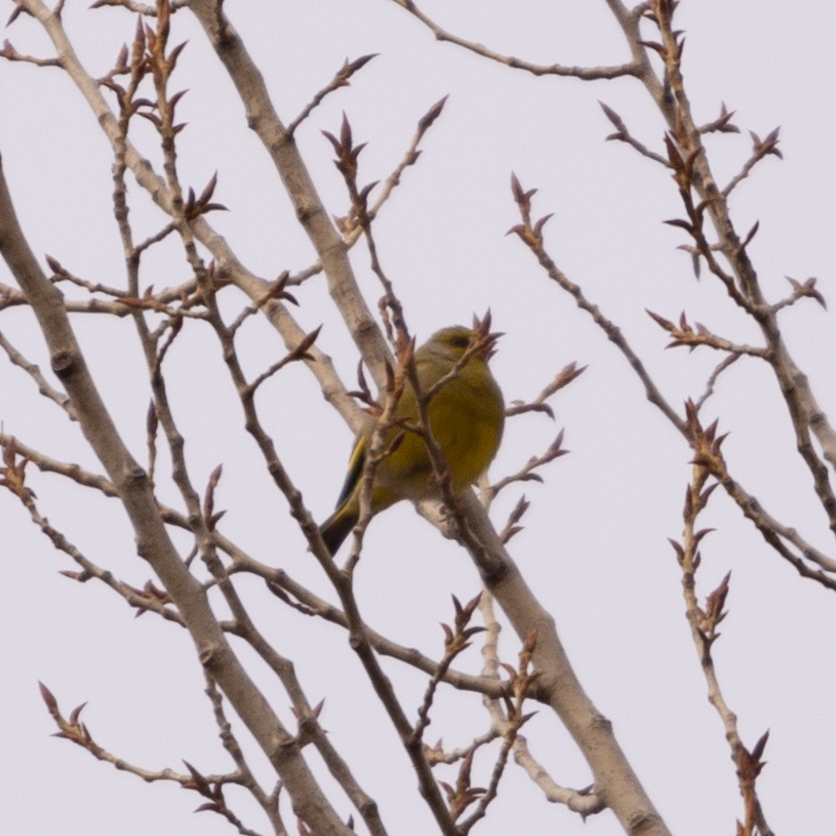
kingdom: Plantae
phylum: Tracheophyta
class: Liliopsida
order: Poales
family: Poaceae
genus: Chloris
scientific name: Chloris chloris
